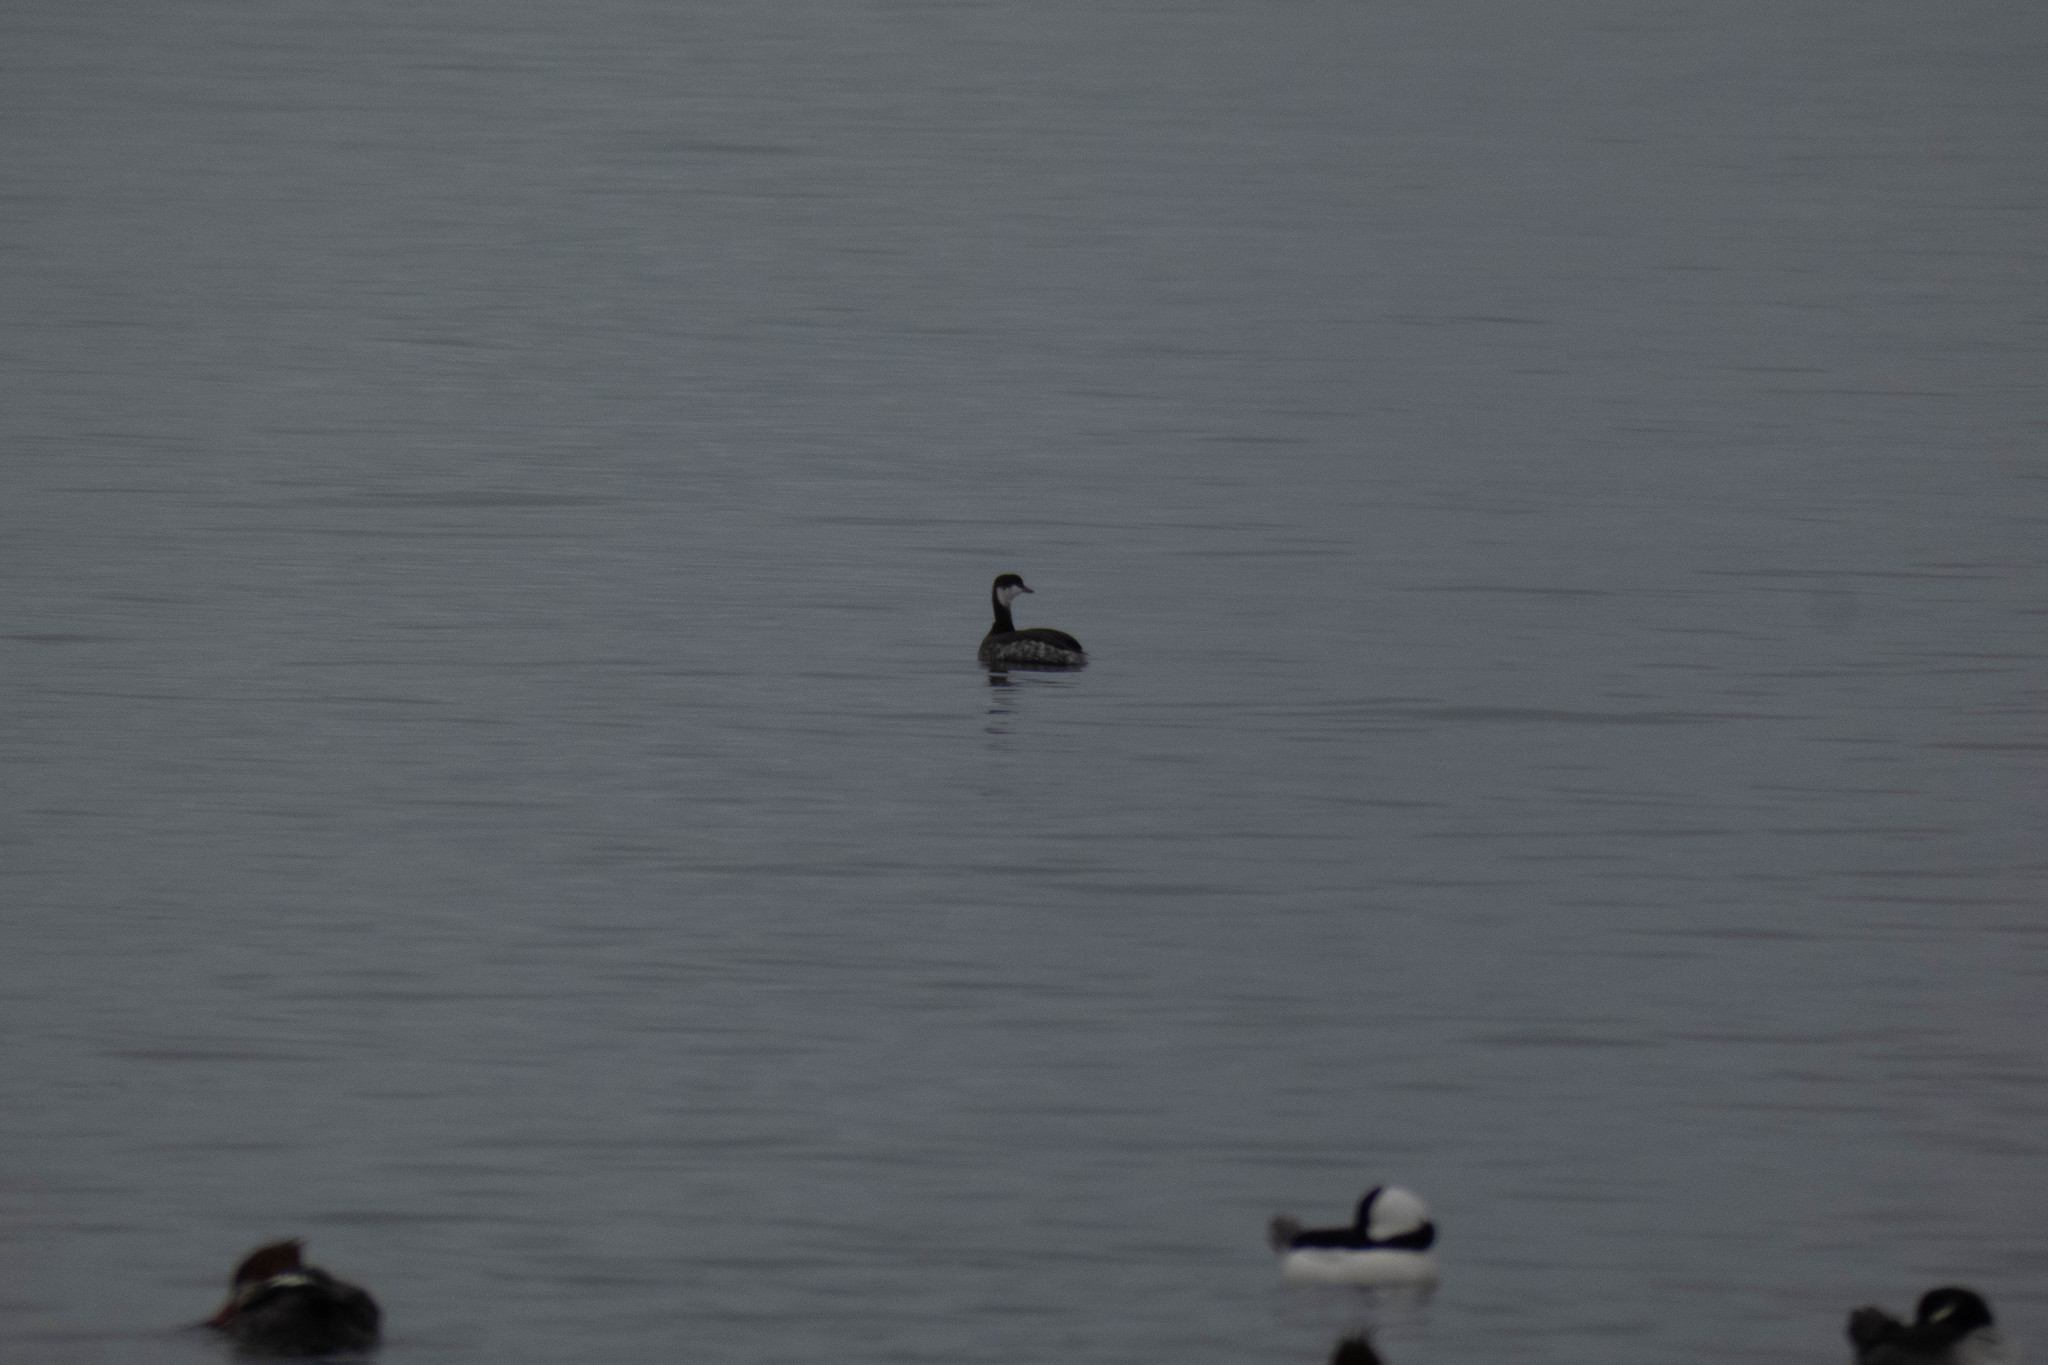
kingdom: Animalia
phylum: Chordata
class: Aves
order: Podicipediformes
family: Podicipedidae
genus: Podiceps
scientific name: Podiceps auritus
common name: Horned grebe
